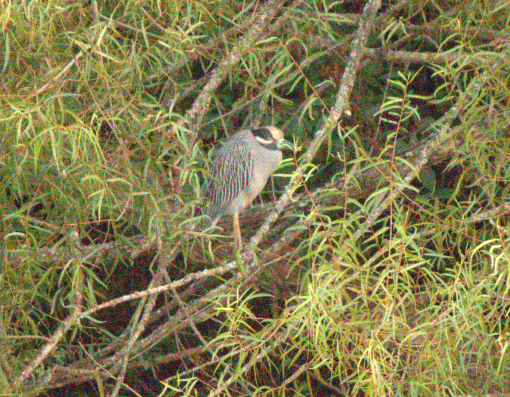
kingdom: Animalia
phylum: Chordata
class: Aves
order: Pelecaniformes
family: Ardeidae
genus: Nyctanassa
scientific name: Nyctanassa violacea
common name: Yellow-crowned night heron
